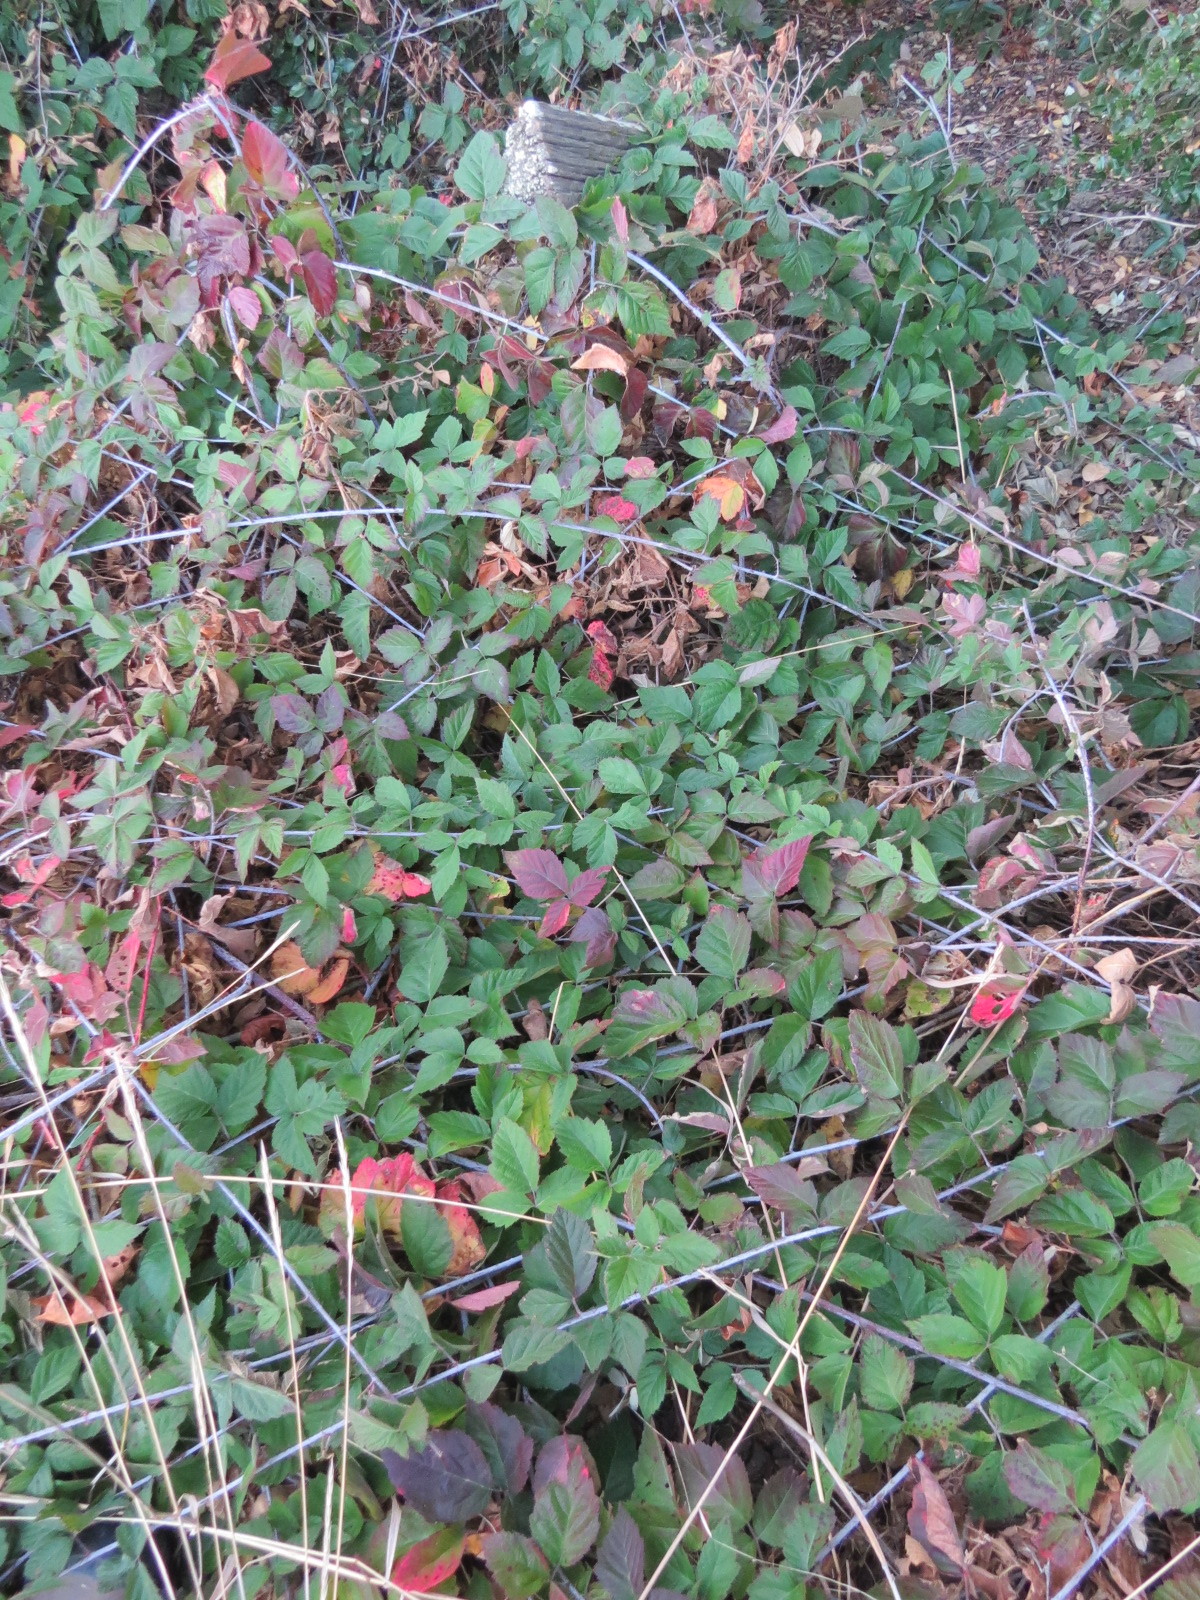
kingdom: Plantae
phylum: Tracheophyta
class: Magnoliopsida
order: Rosales
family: Rosaceae
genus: Rubus
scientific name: Rubus ursinus
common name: Pacific blackberry
